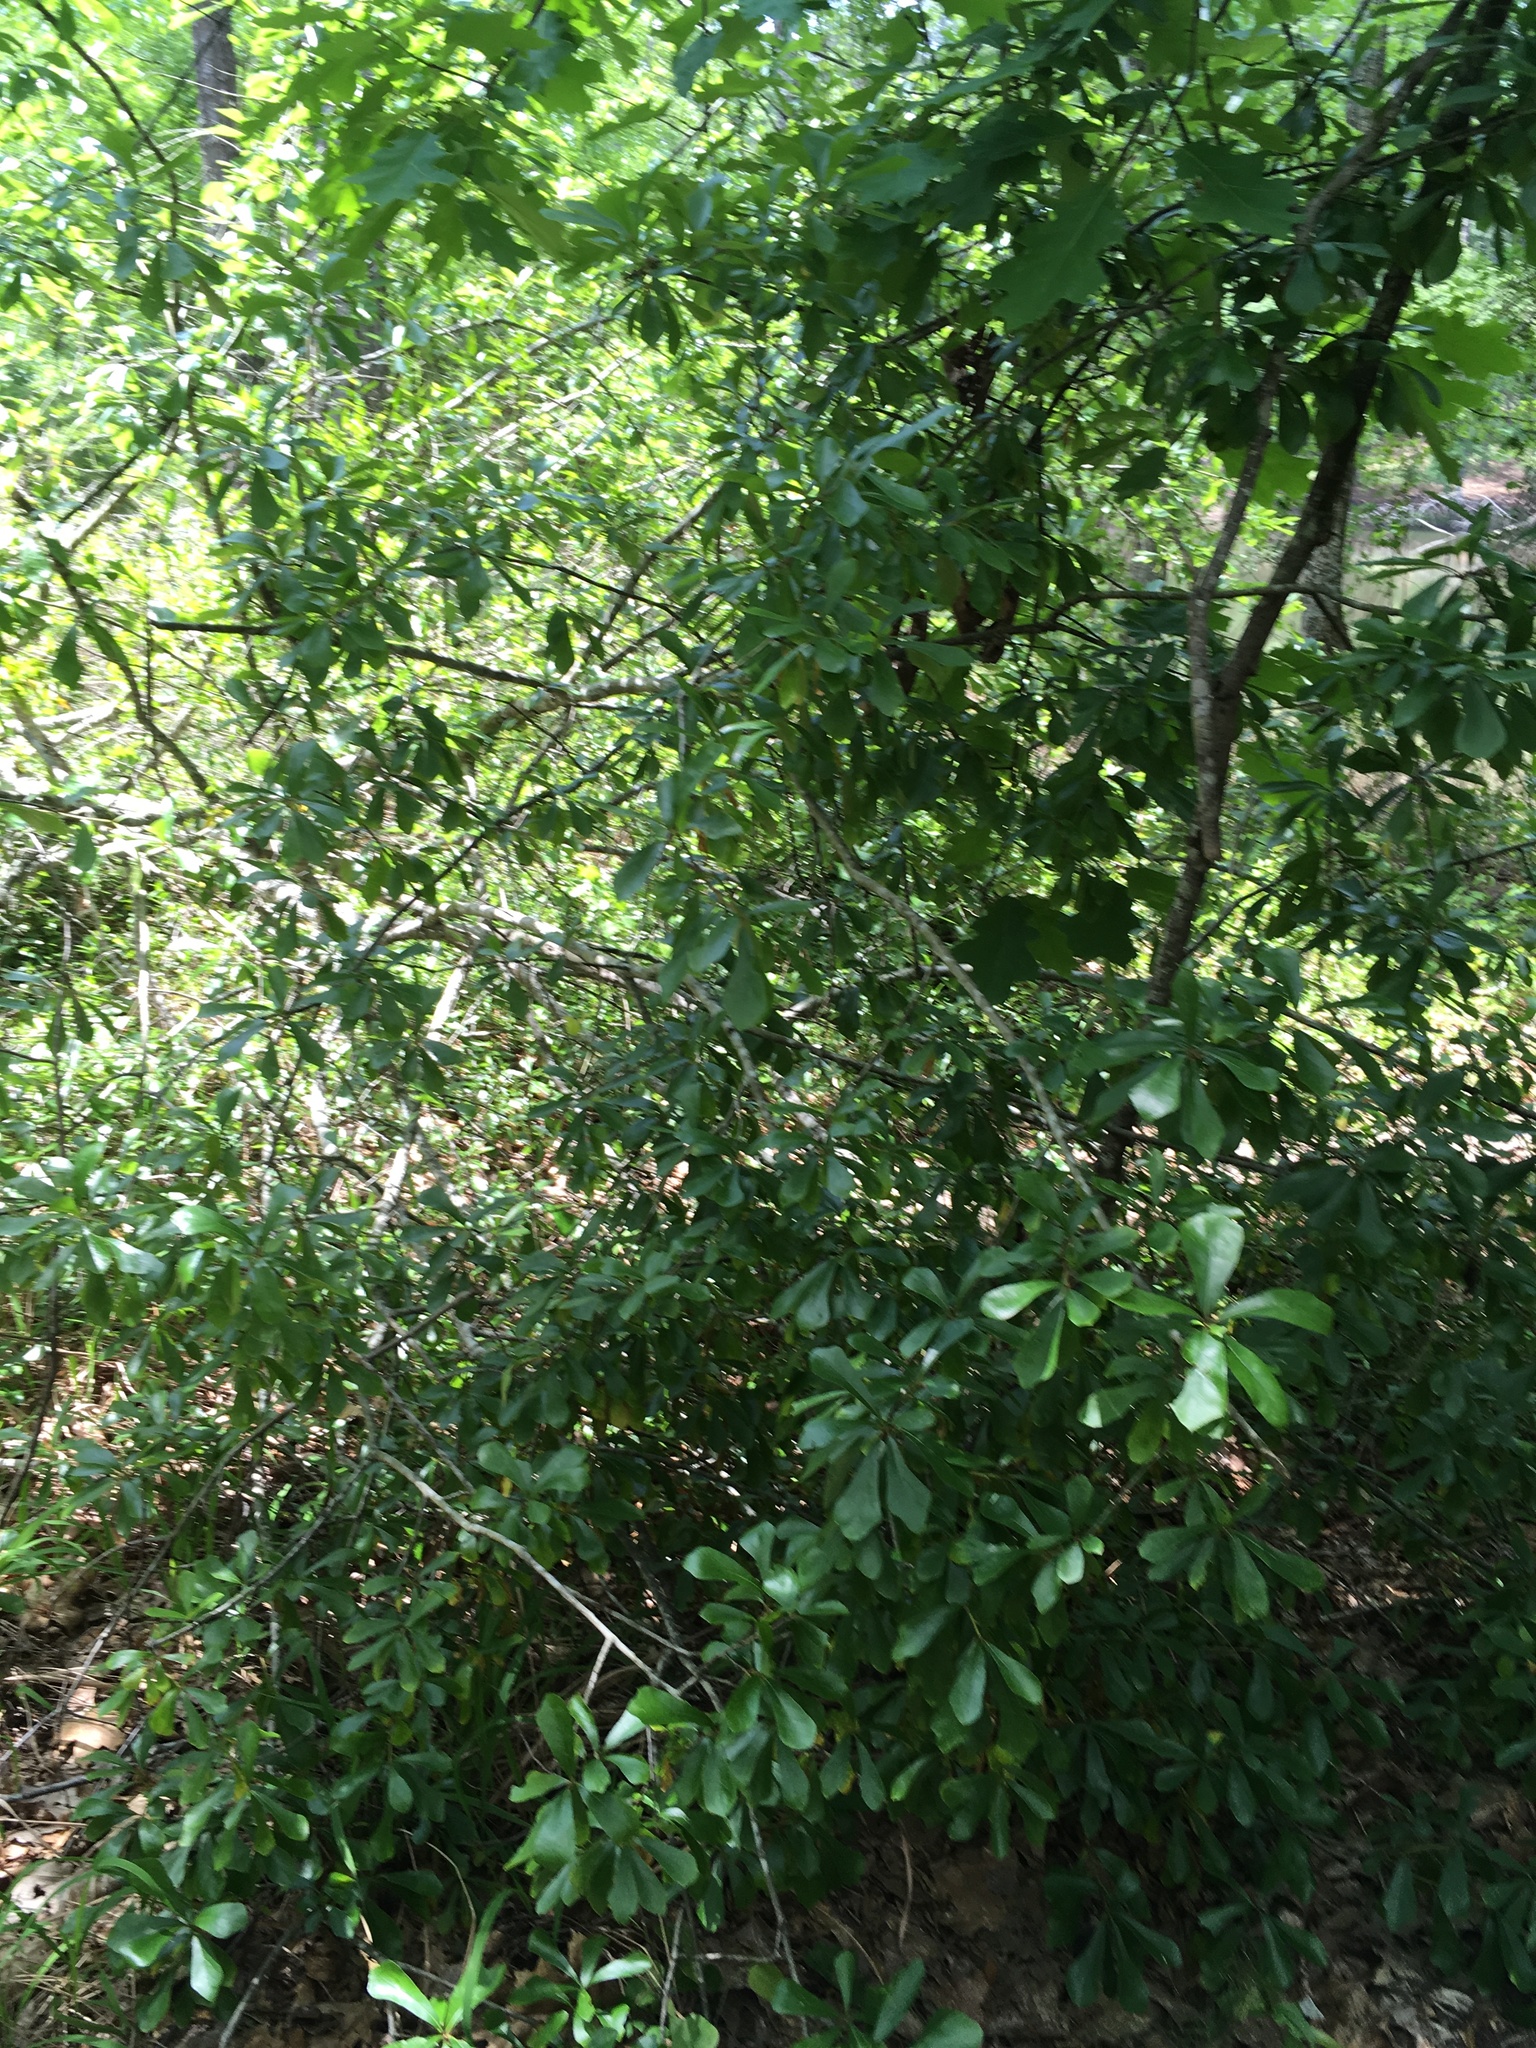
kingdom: Plantae
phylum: Tracheophyta
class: Magnoliopsida
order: Fagales
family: Fagaceae
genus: Quercus
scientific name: Quercus nigra
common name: Water oak
